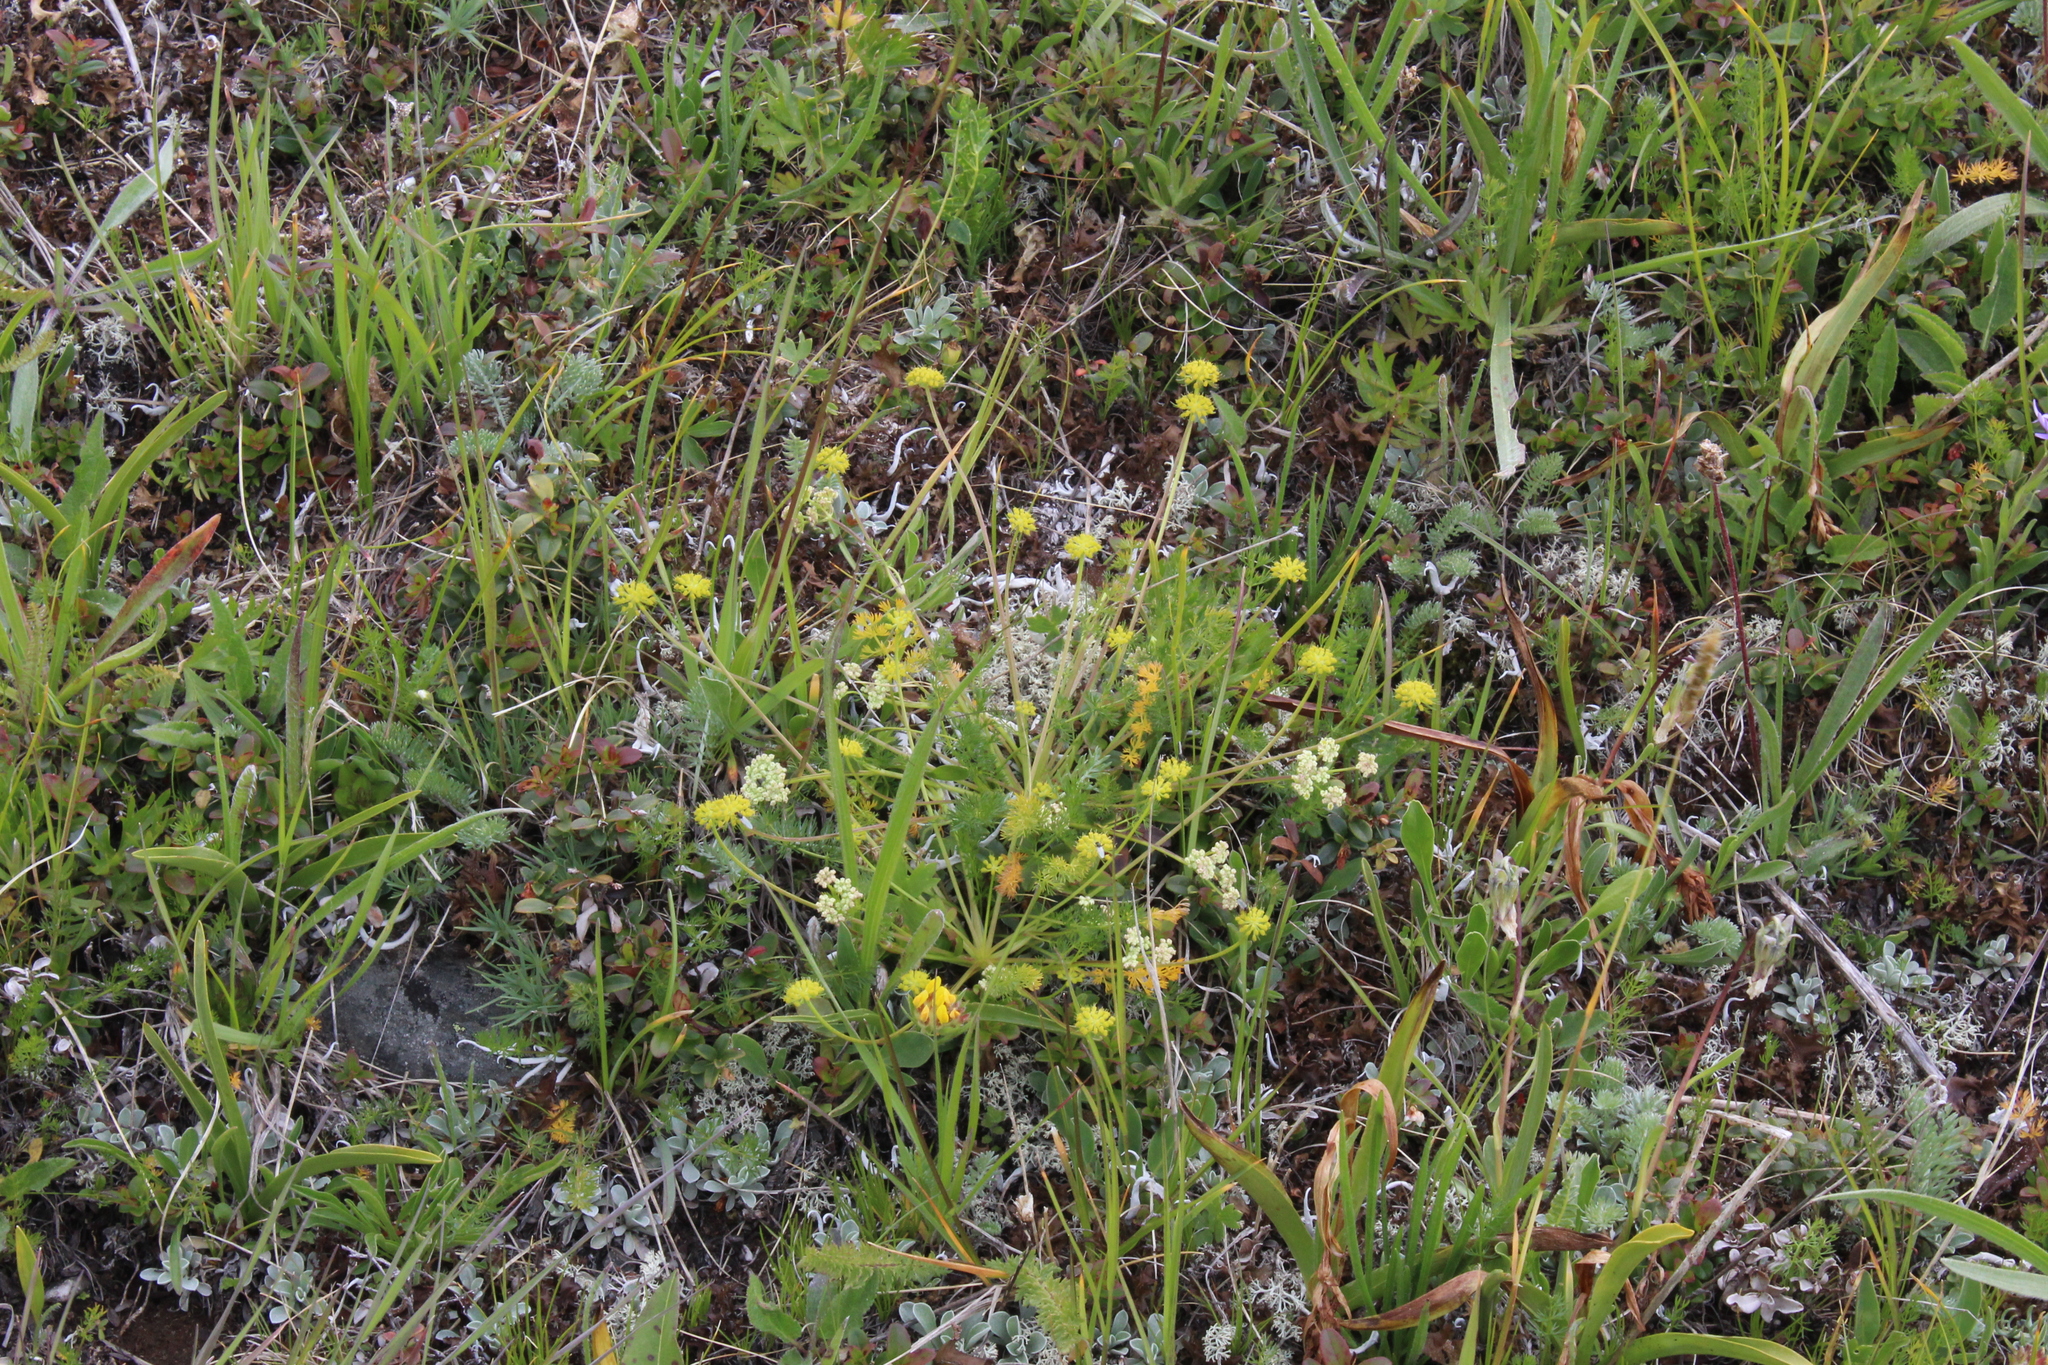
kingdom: Plantae
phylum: Tracheophyta
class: Magnoliopsida
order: Apiales
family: Apiaceae
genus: Chamaesciadium
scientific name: Chamaesciadium acaule
